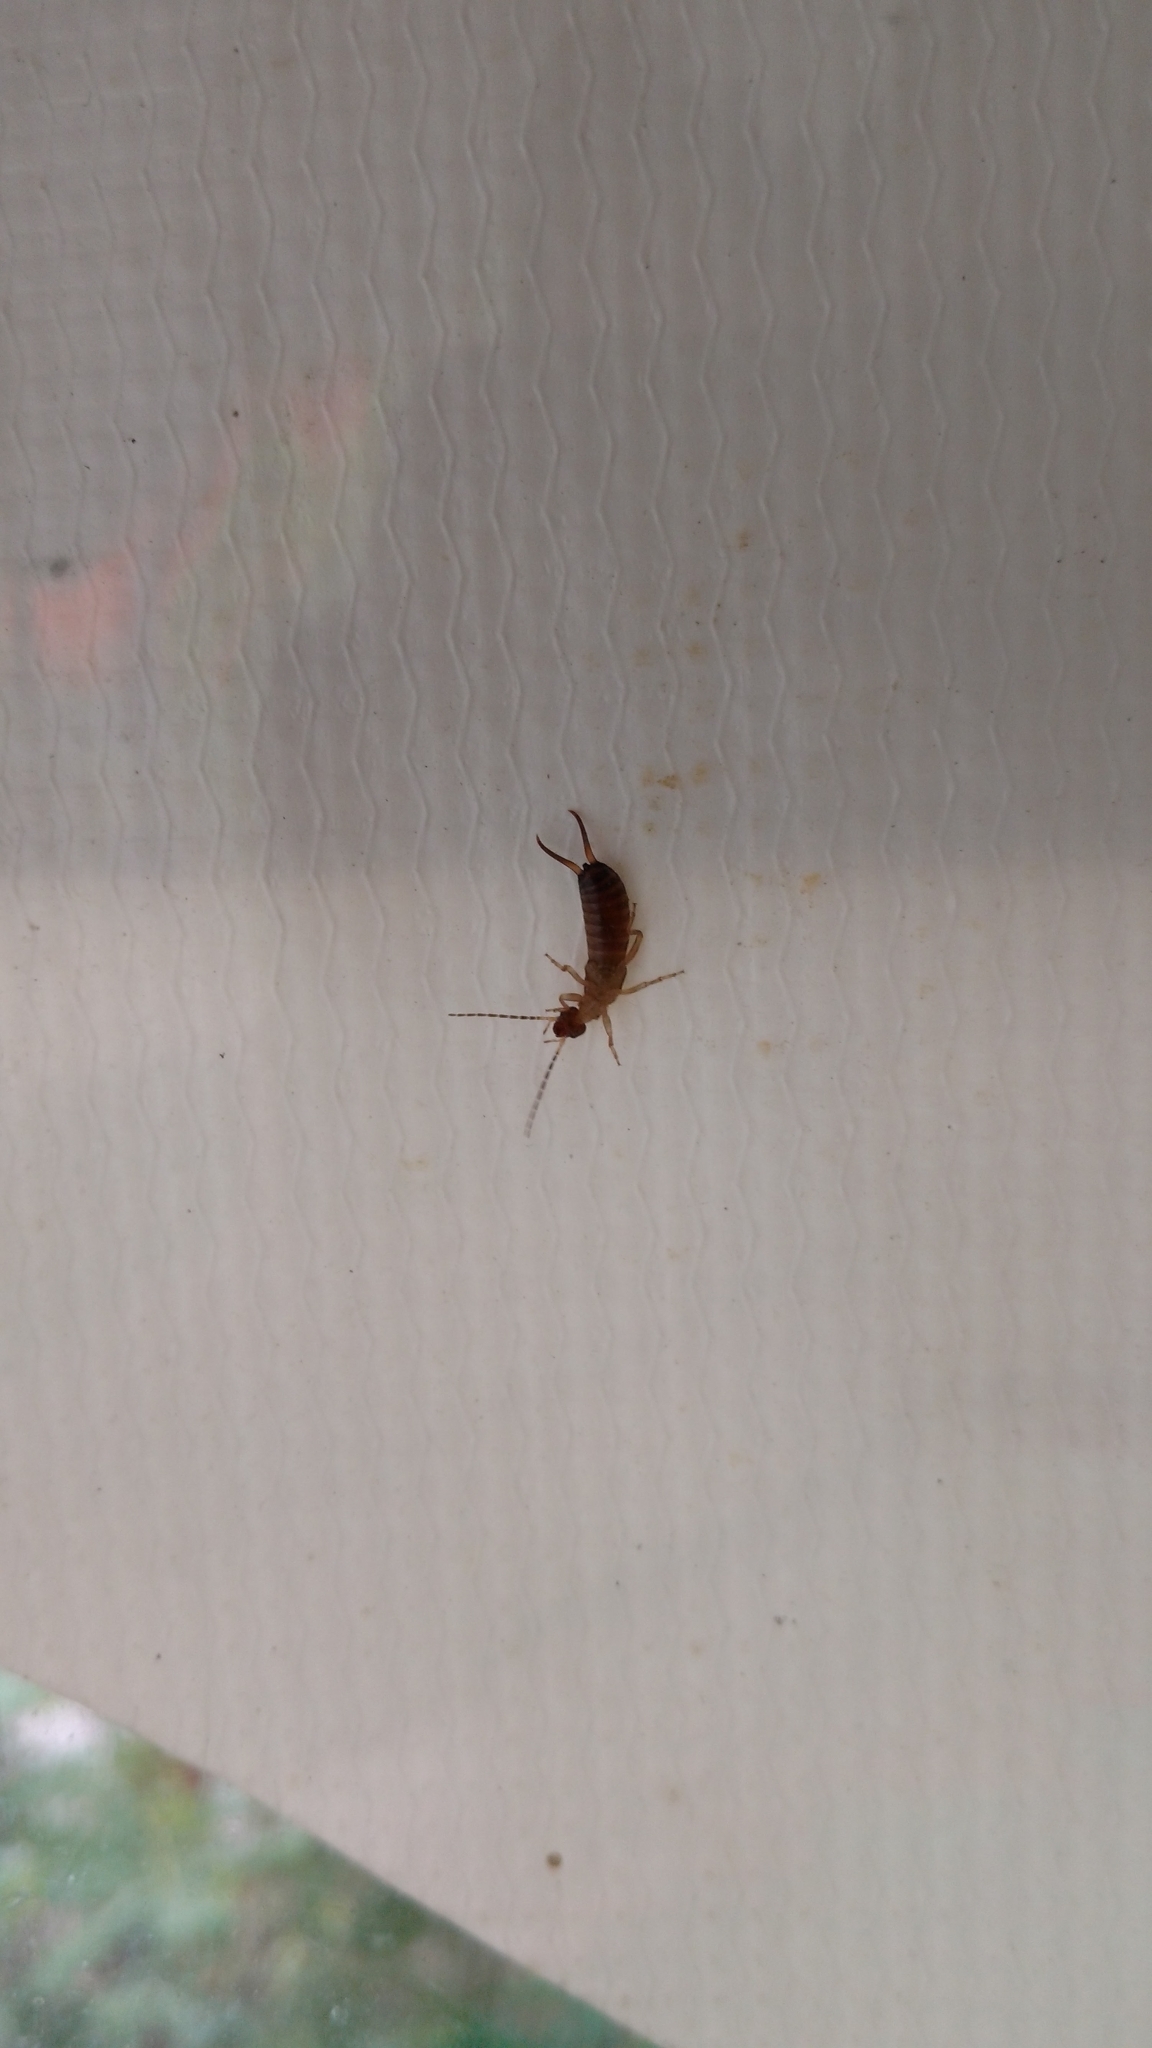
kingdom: Animalia
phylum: Arthropoda
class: Insecta
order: Dermaptera
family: Forficulidae
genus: Forficula
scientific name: Forficula
